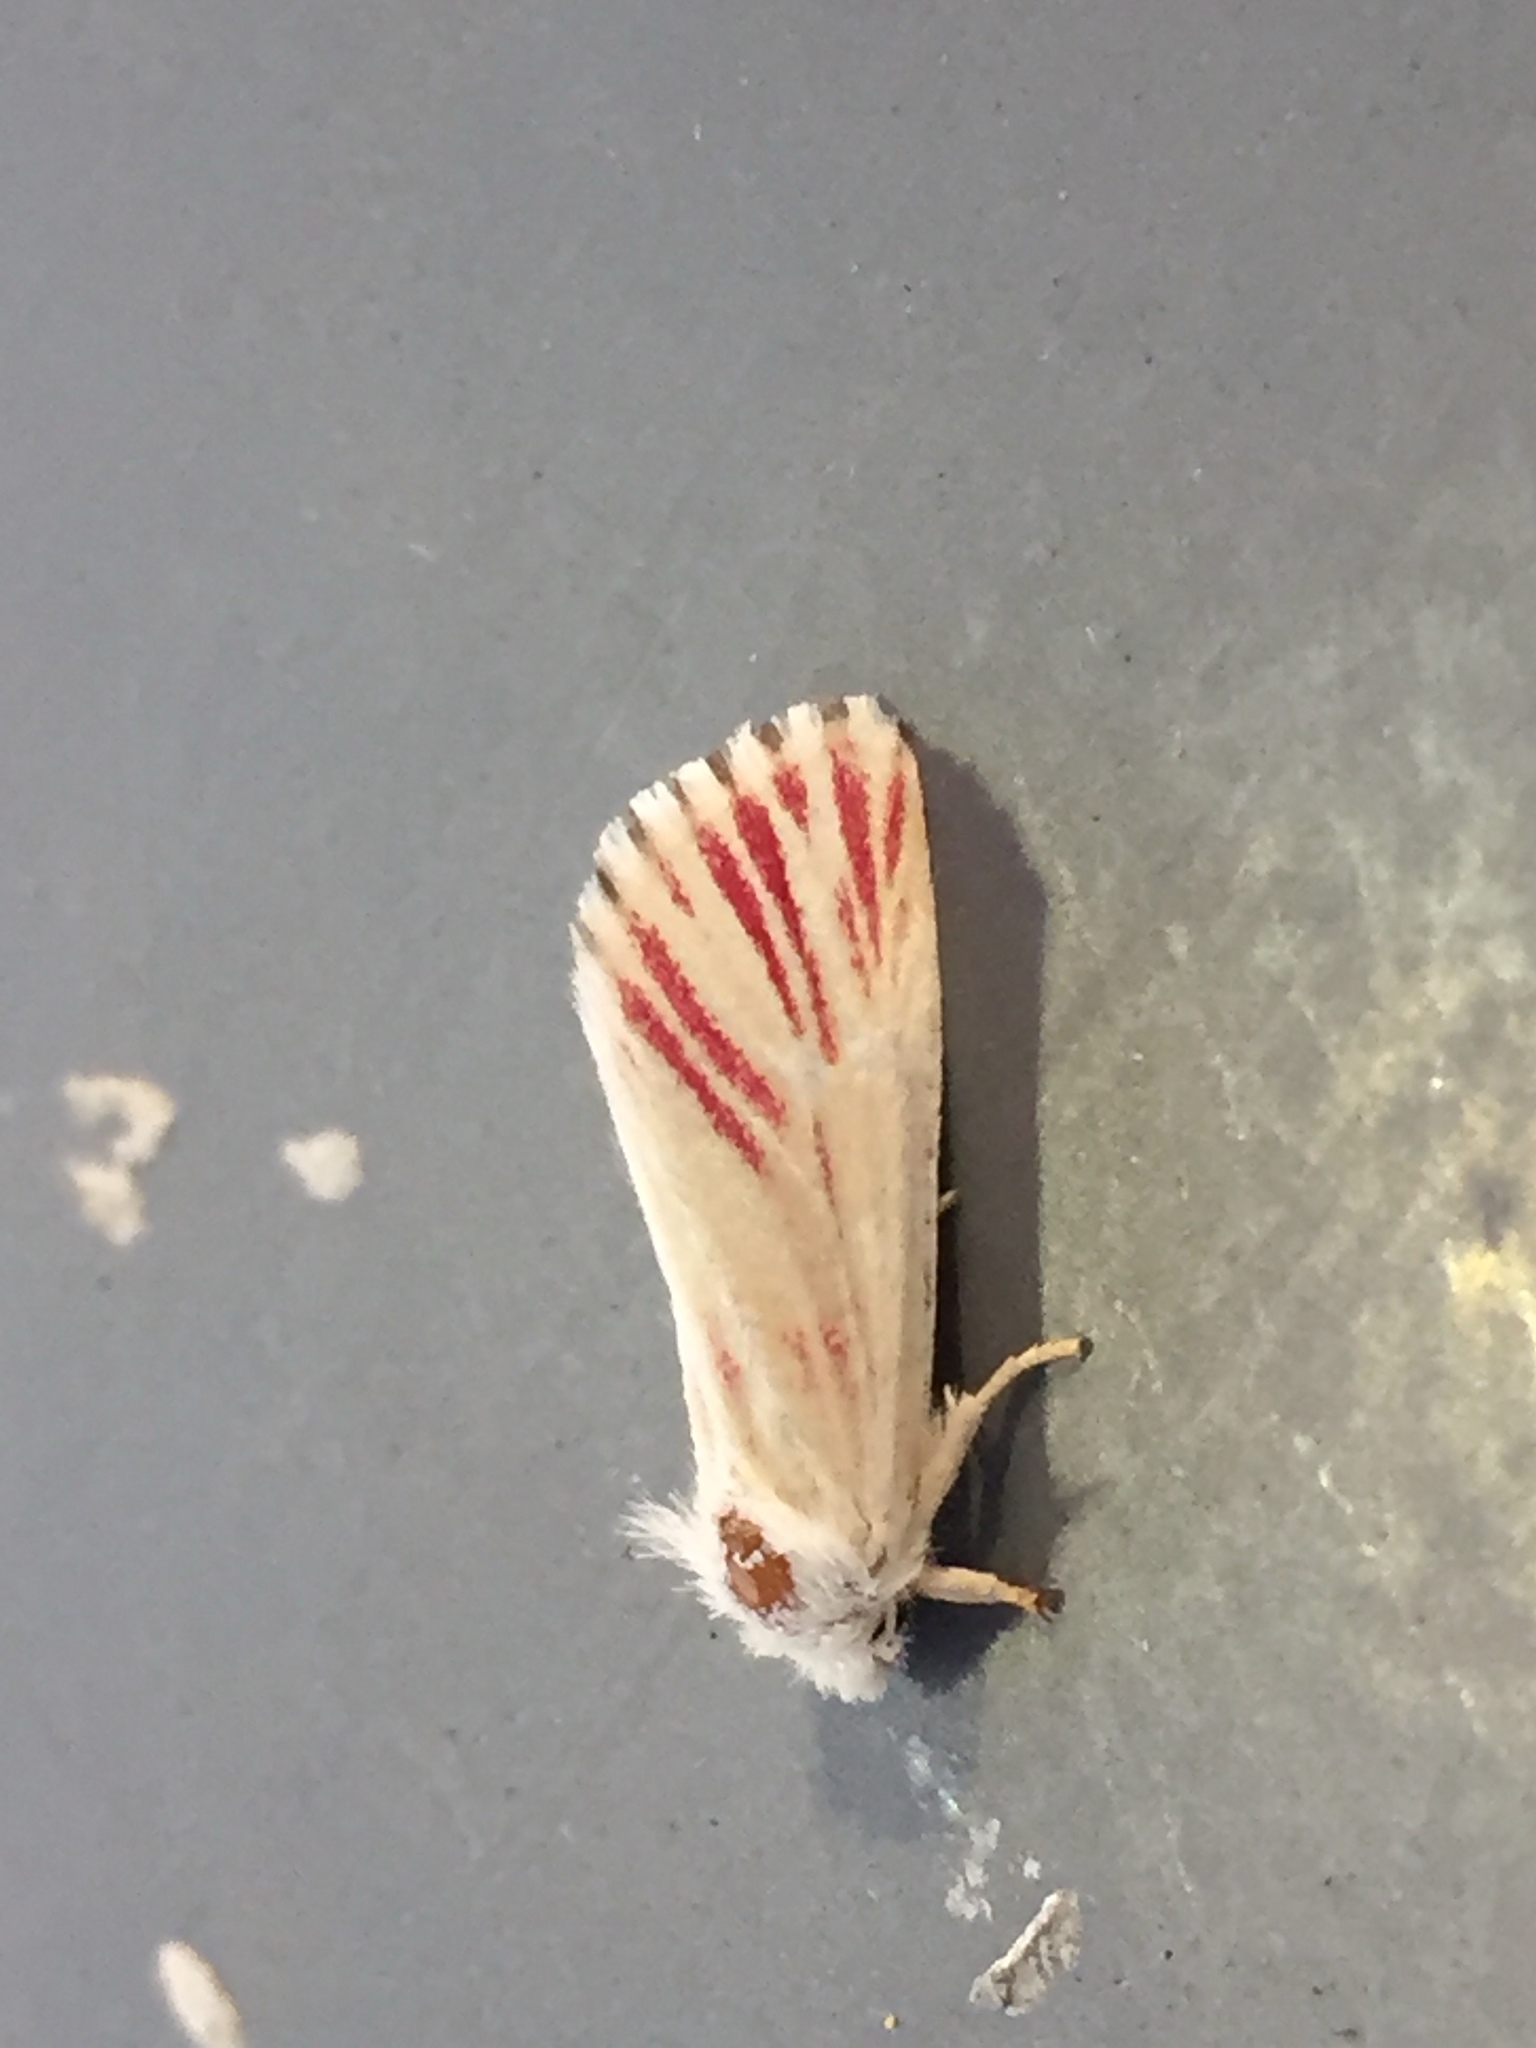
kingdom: Animalia
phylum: Arthropoda
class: Insecta
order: Lepidoptera
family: Noctuidae
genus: Lythrodes
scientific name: Lythrodes venatus
